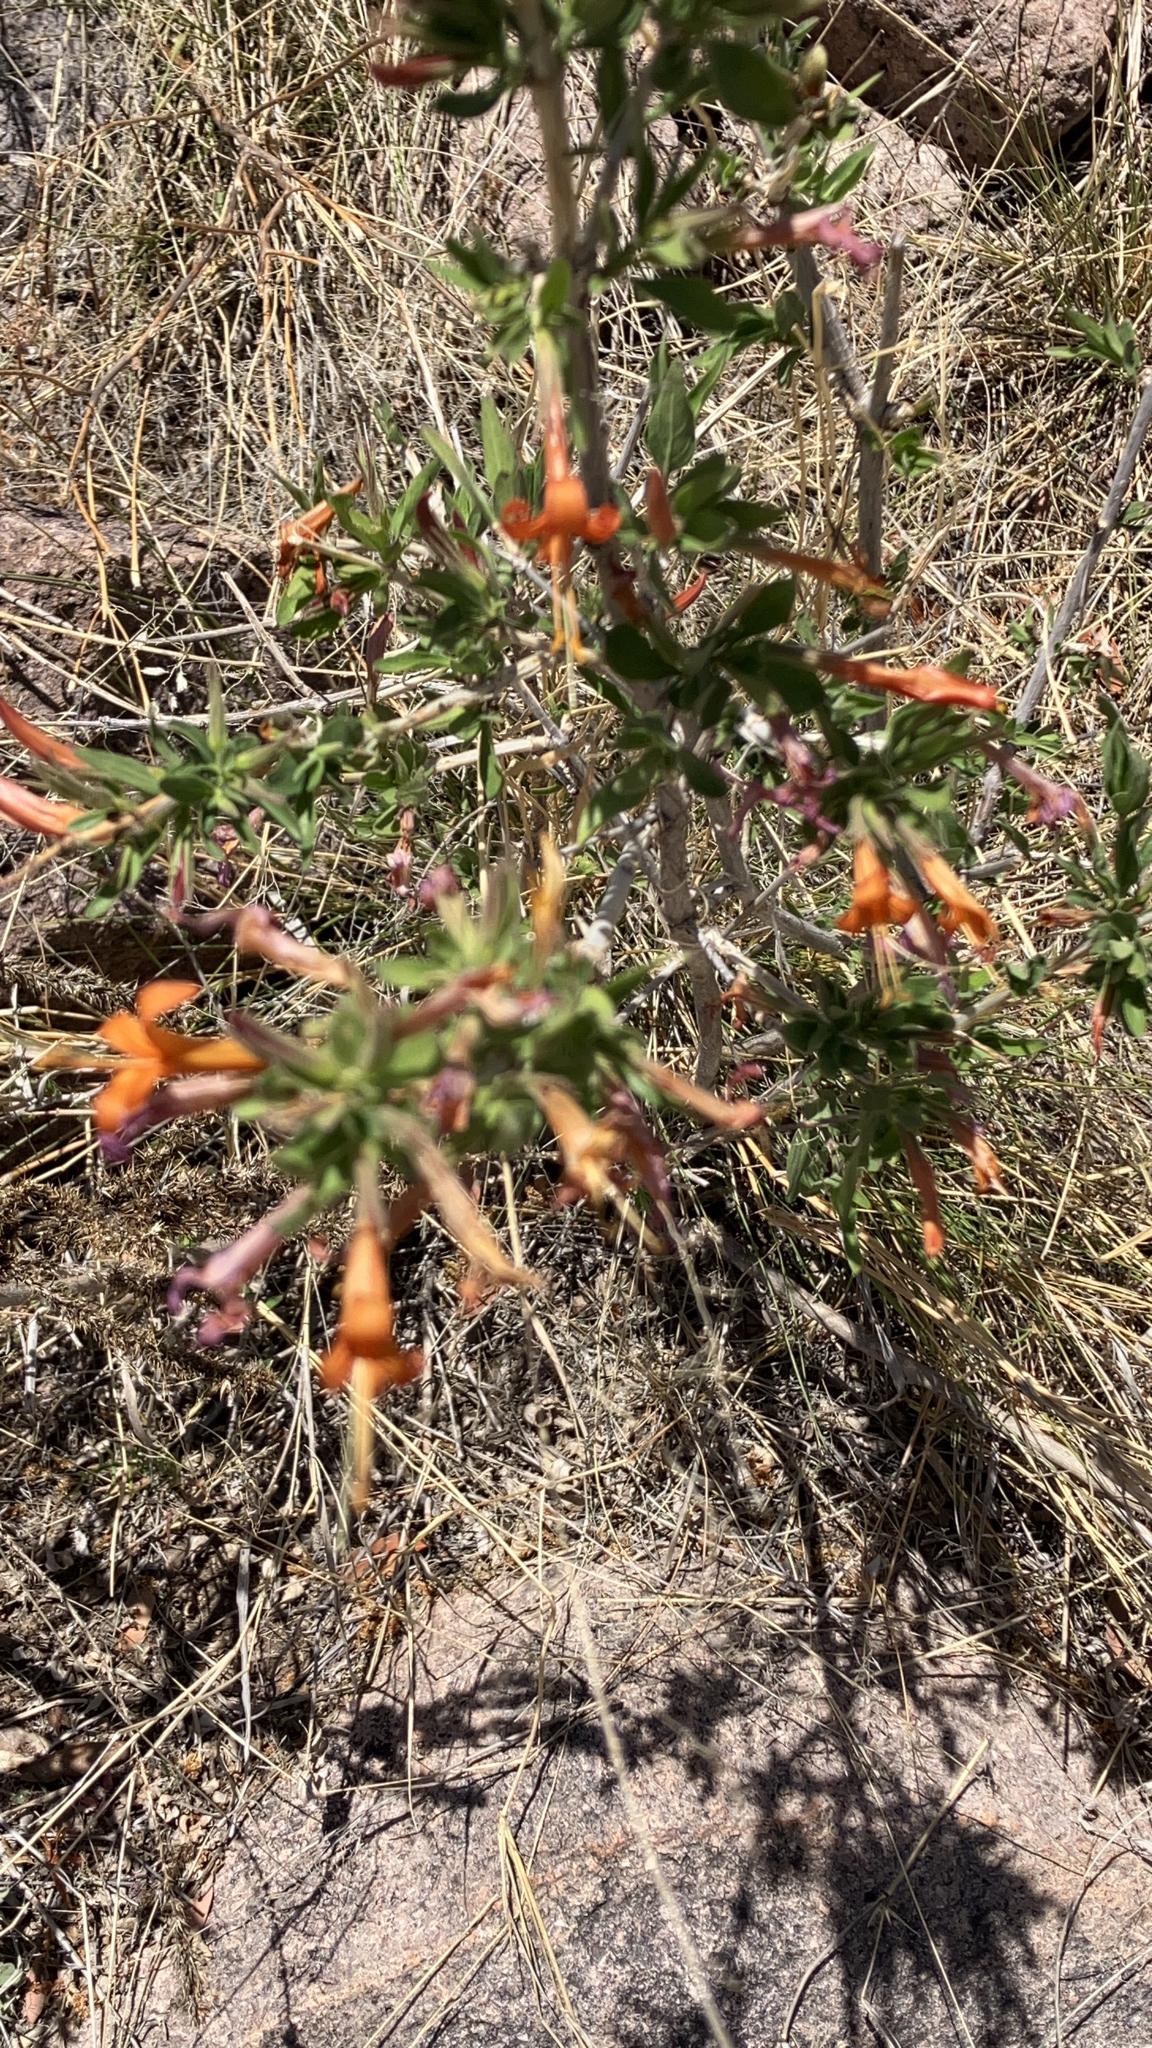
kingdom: Plantae
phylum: Tracheophyta
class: Magnoliopsida
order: Lamiales
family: Acanthaceae
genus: Anisacanthus
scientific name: Anisacanthus thurberi
